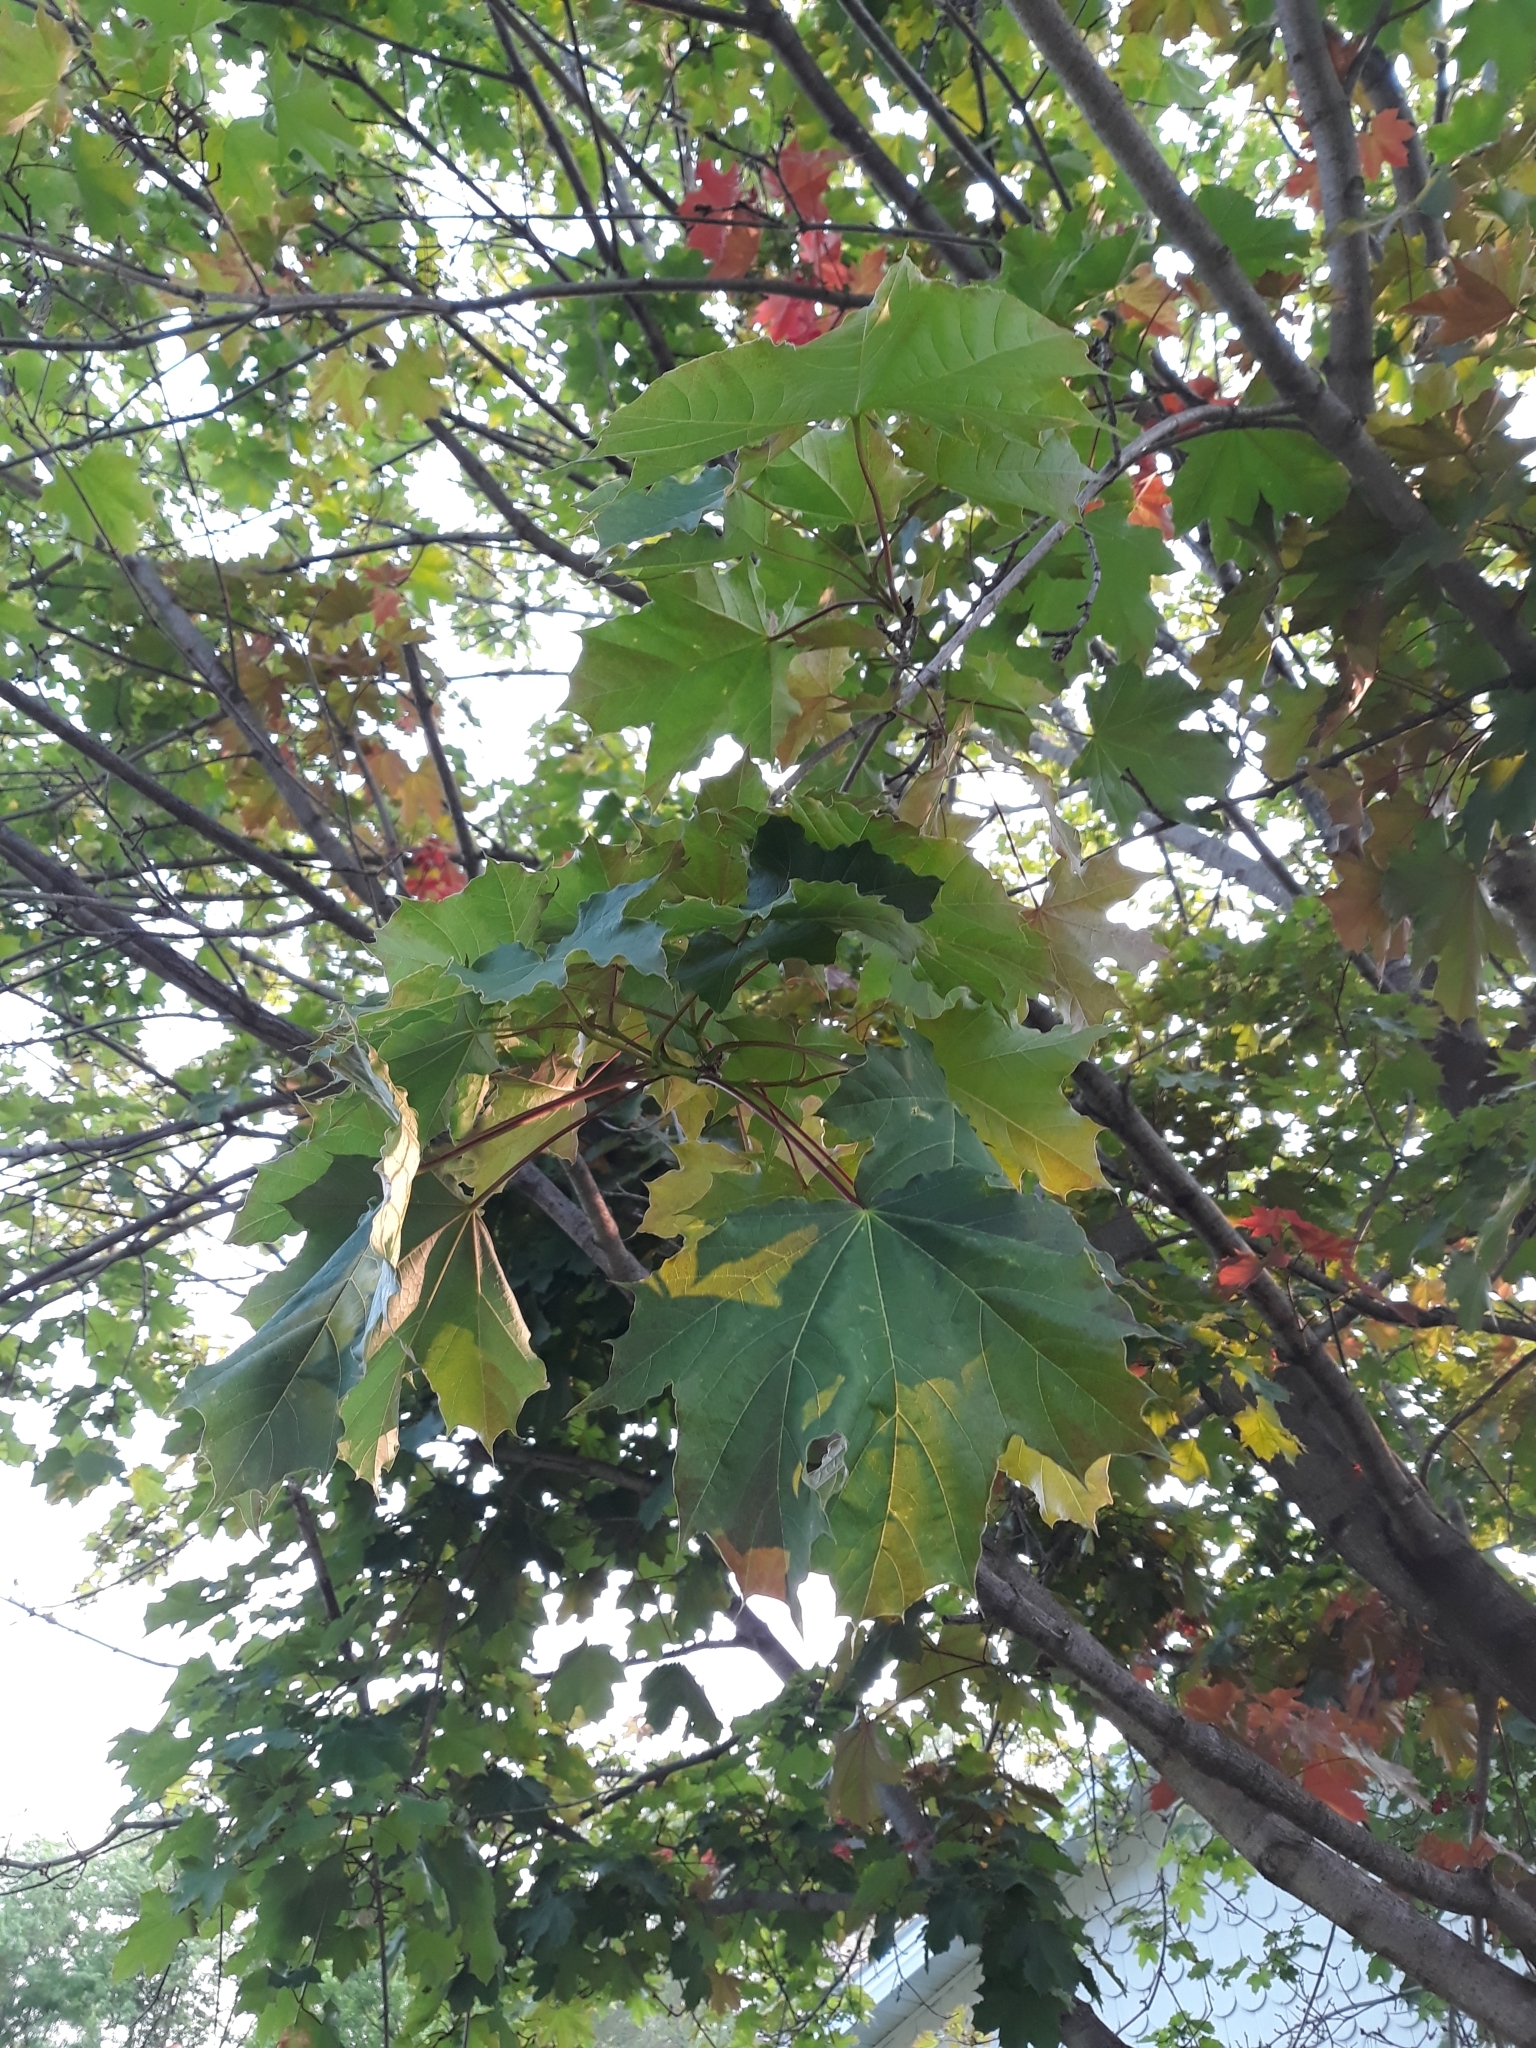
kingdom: Plantae
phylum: Tracheophyta
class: Magnoliopsida
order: Sapindales
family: Sapindaceae
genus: Acer
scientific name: Acer platanoides
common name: Norway maple
